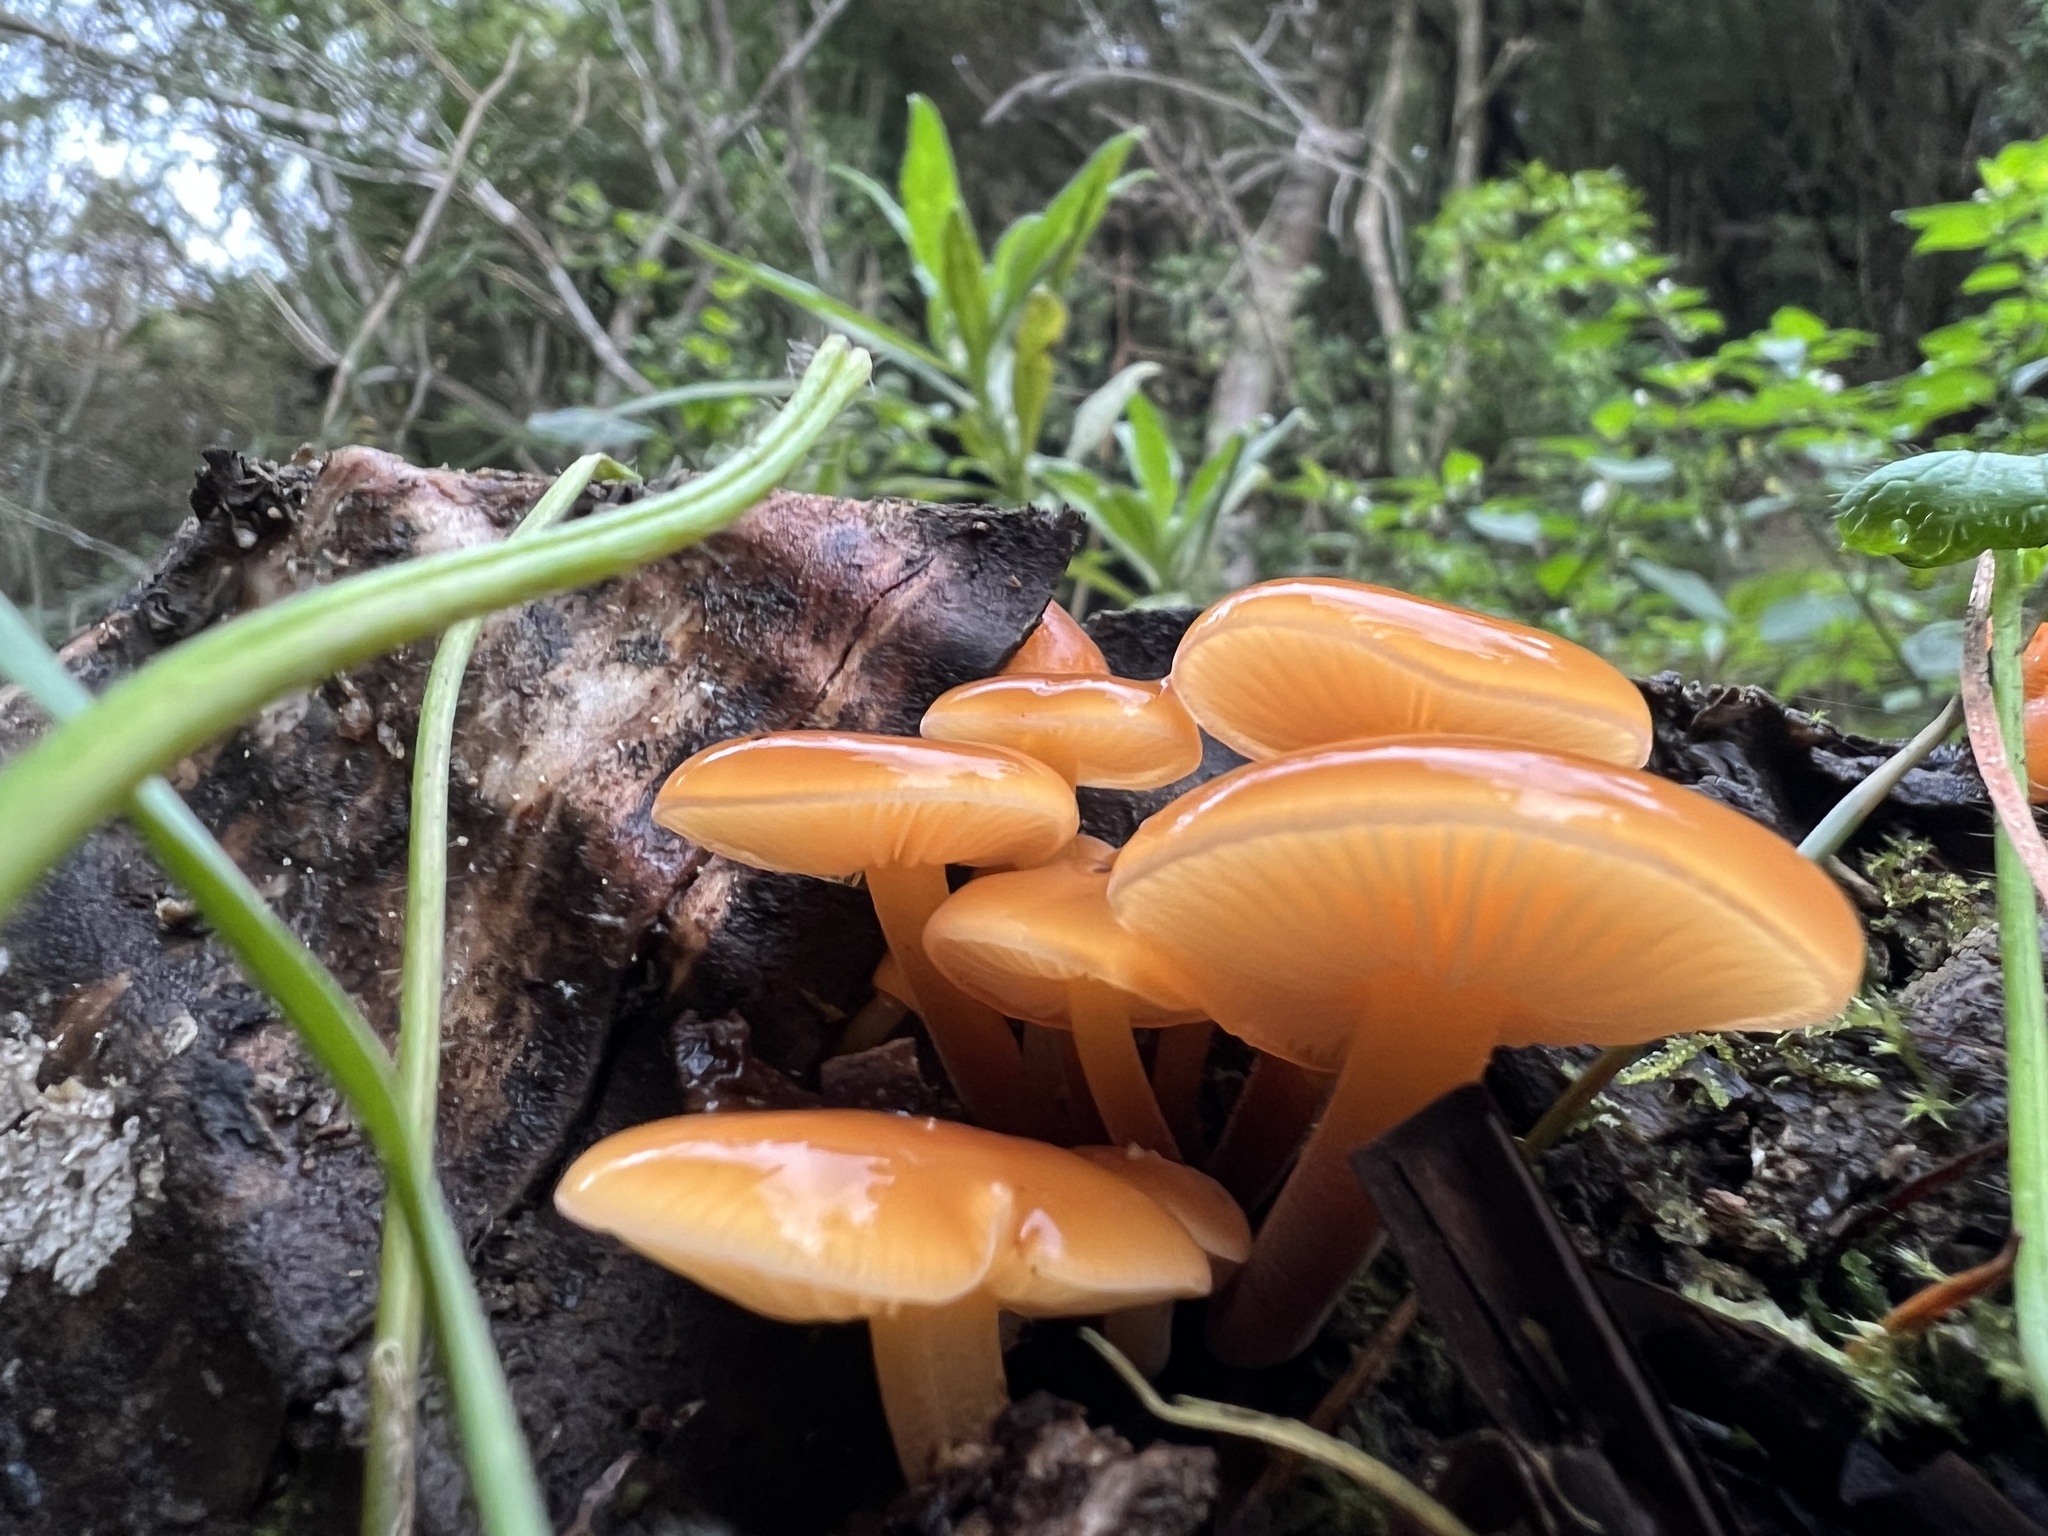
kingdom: Fungi
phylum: Basidiomycota
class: Agaricomycetes
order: Agaricales
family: Physalacriaceae
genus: Flammulina
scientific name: Flammulina velutipes
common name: Velvet shank
